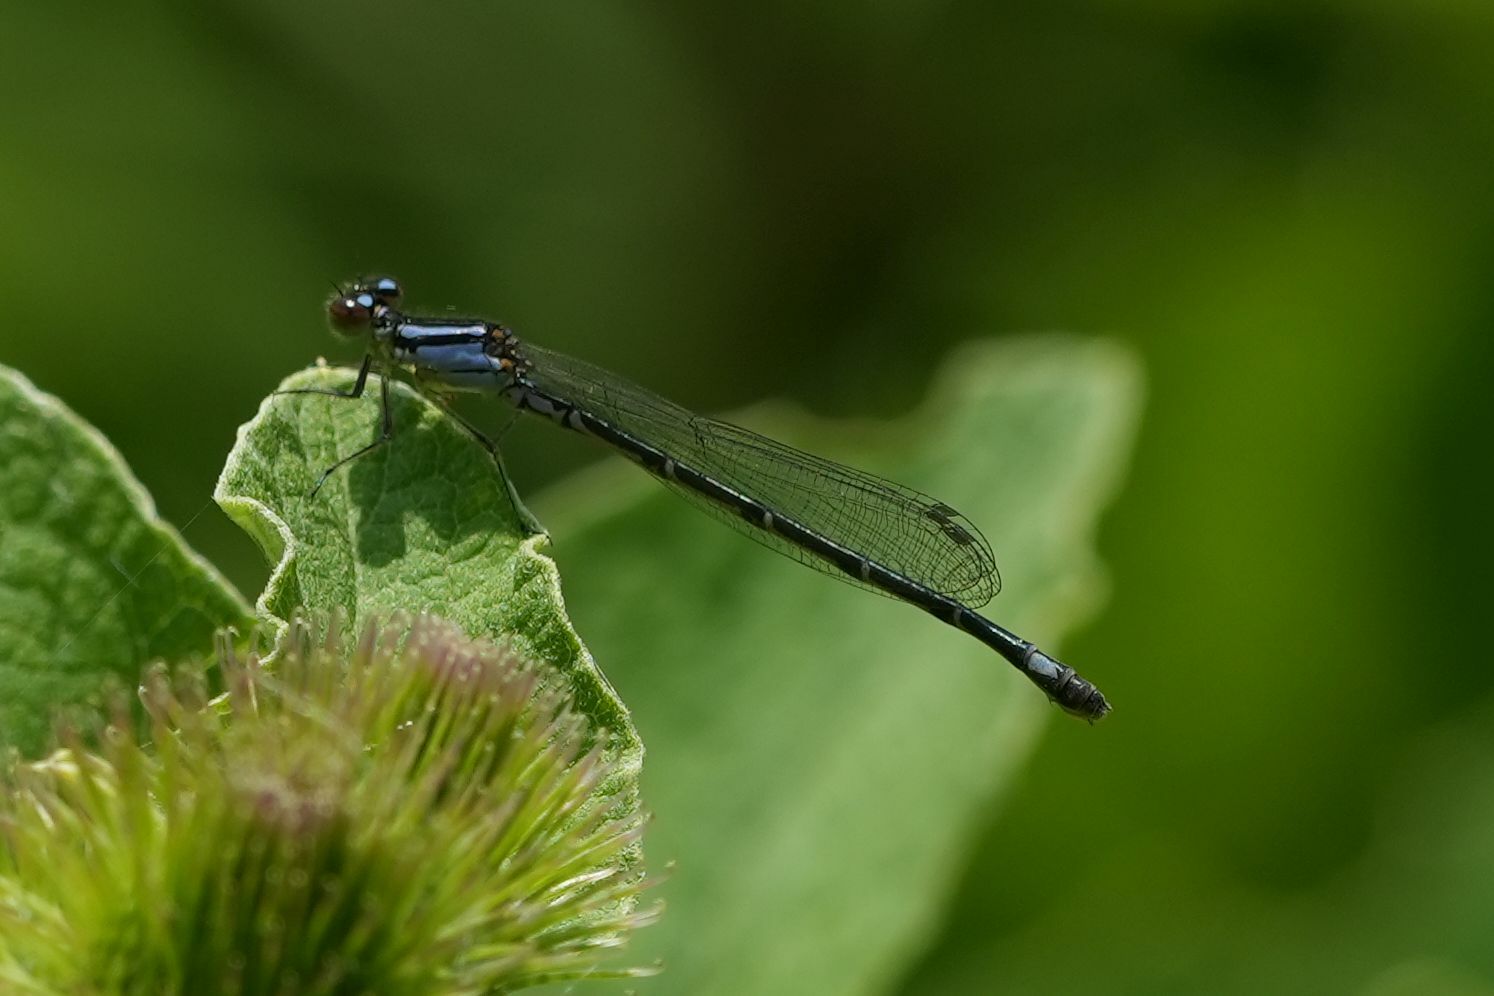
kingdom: Animalia
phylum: Arthropoda
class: Insecta
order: Odonata
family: Coenagrionidae
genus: Enallagma
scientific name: Enallagma geminatum
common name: Skimming bluet
